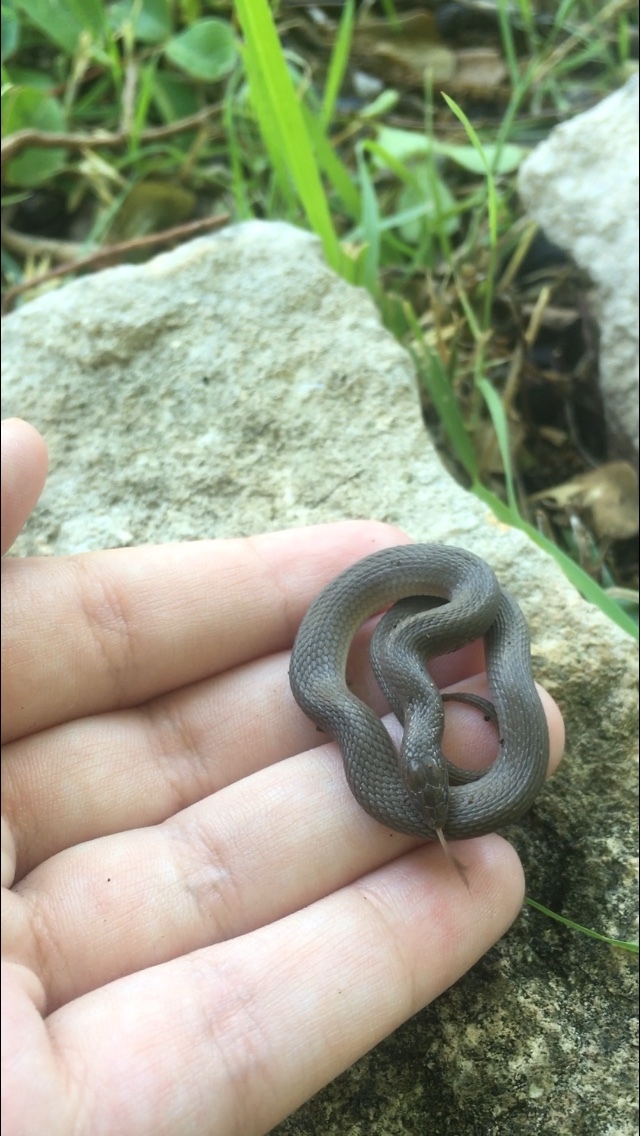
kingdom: Animalia
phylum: Chordata
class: Squamata
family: Colubridae
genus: Haldea
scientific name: Haldea striatula
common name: Rough earth snake
